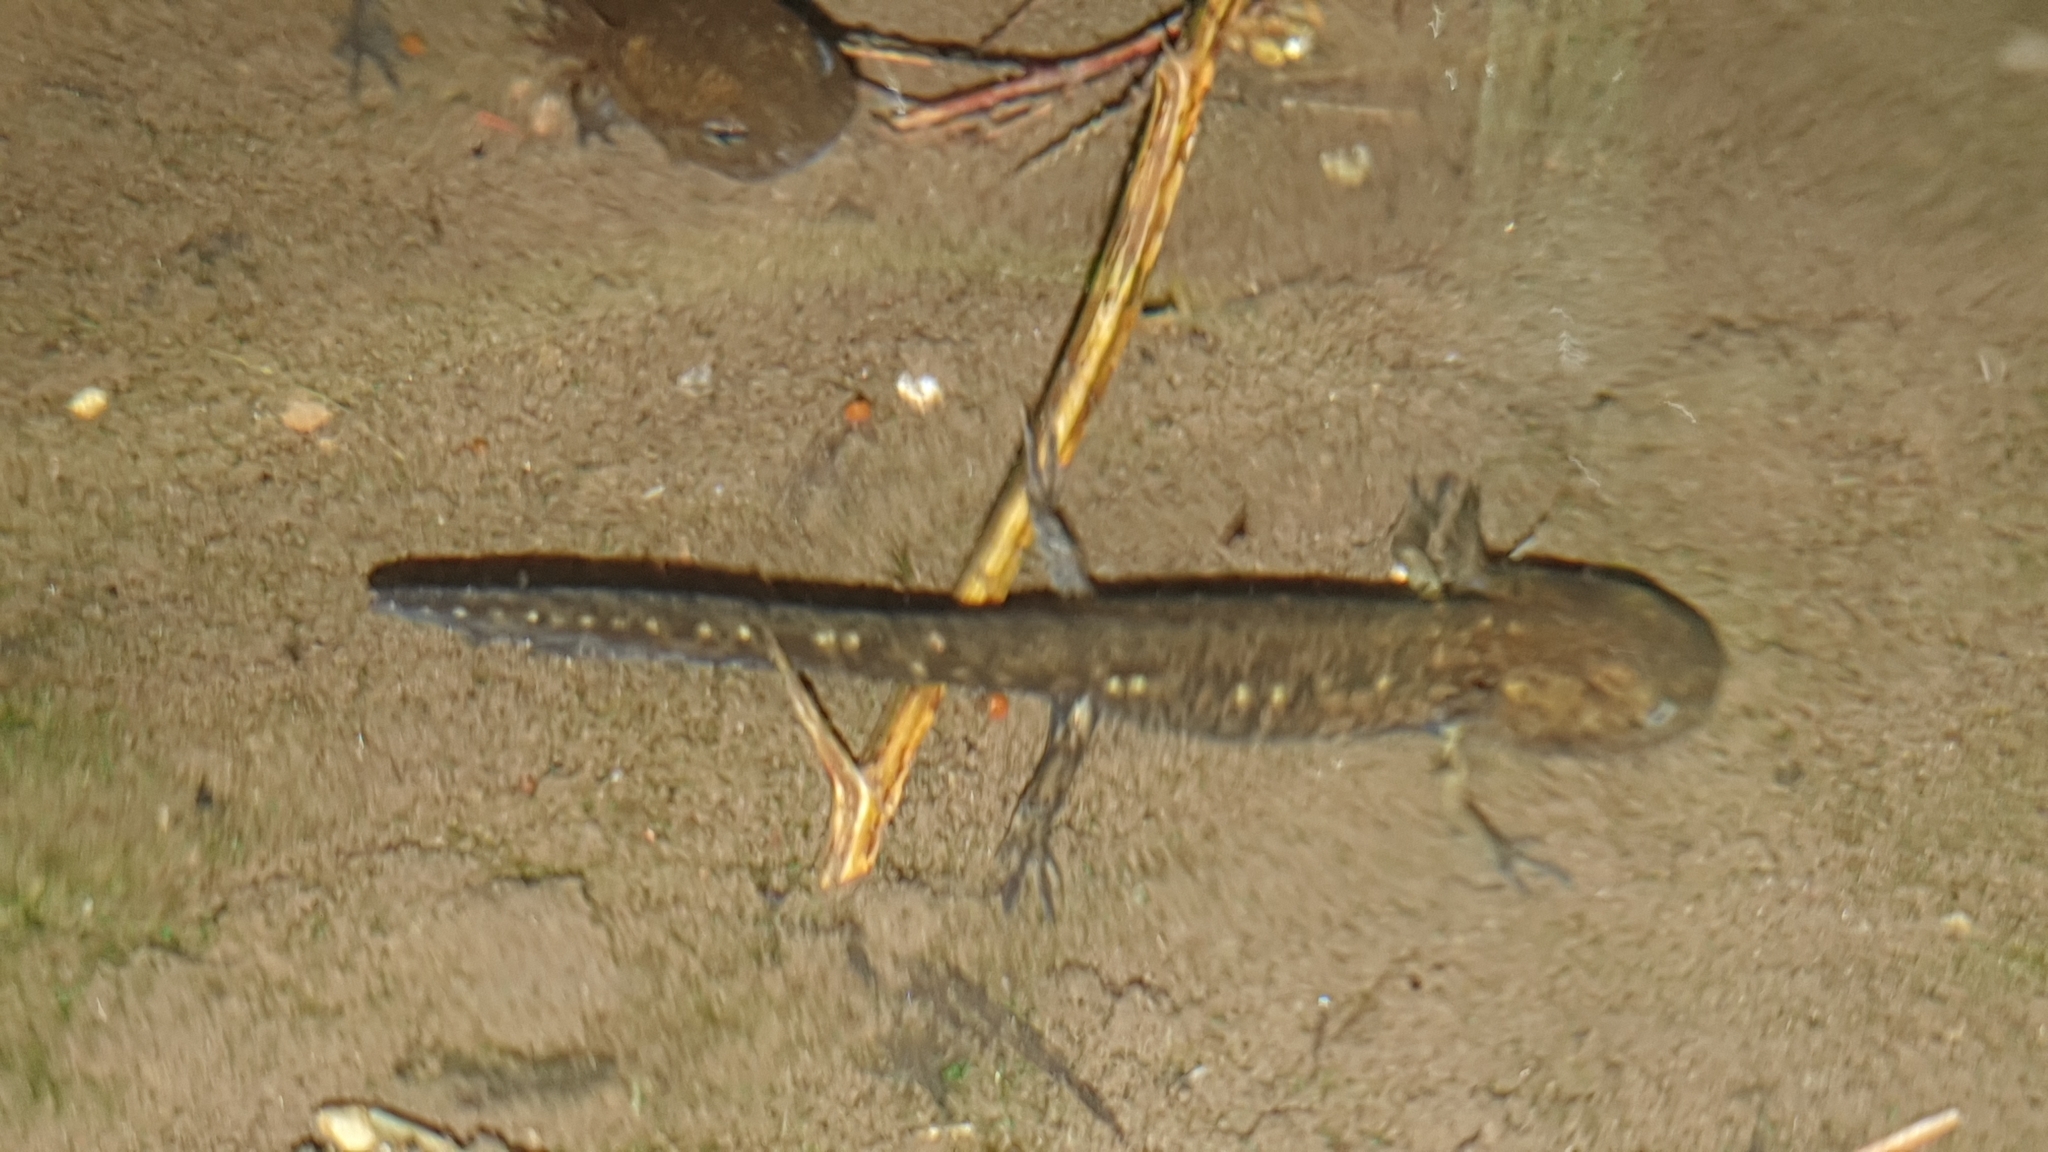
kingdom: Animalia
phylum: Chordata
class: Amphibia
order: Caudata
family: Salamandridae
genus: Salamandra
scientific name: Salamandra salamandra
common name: Fire salamander
